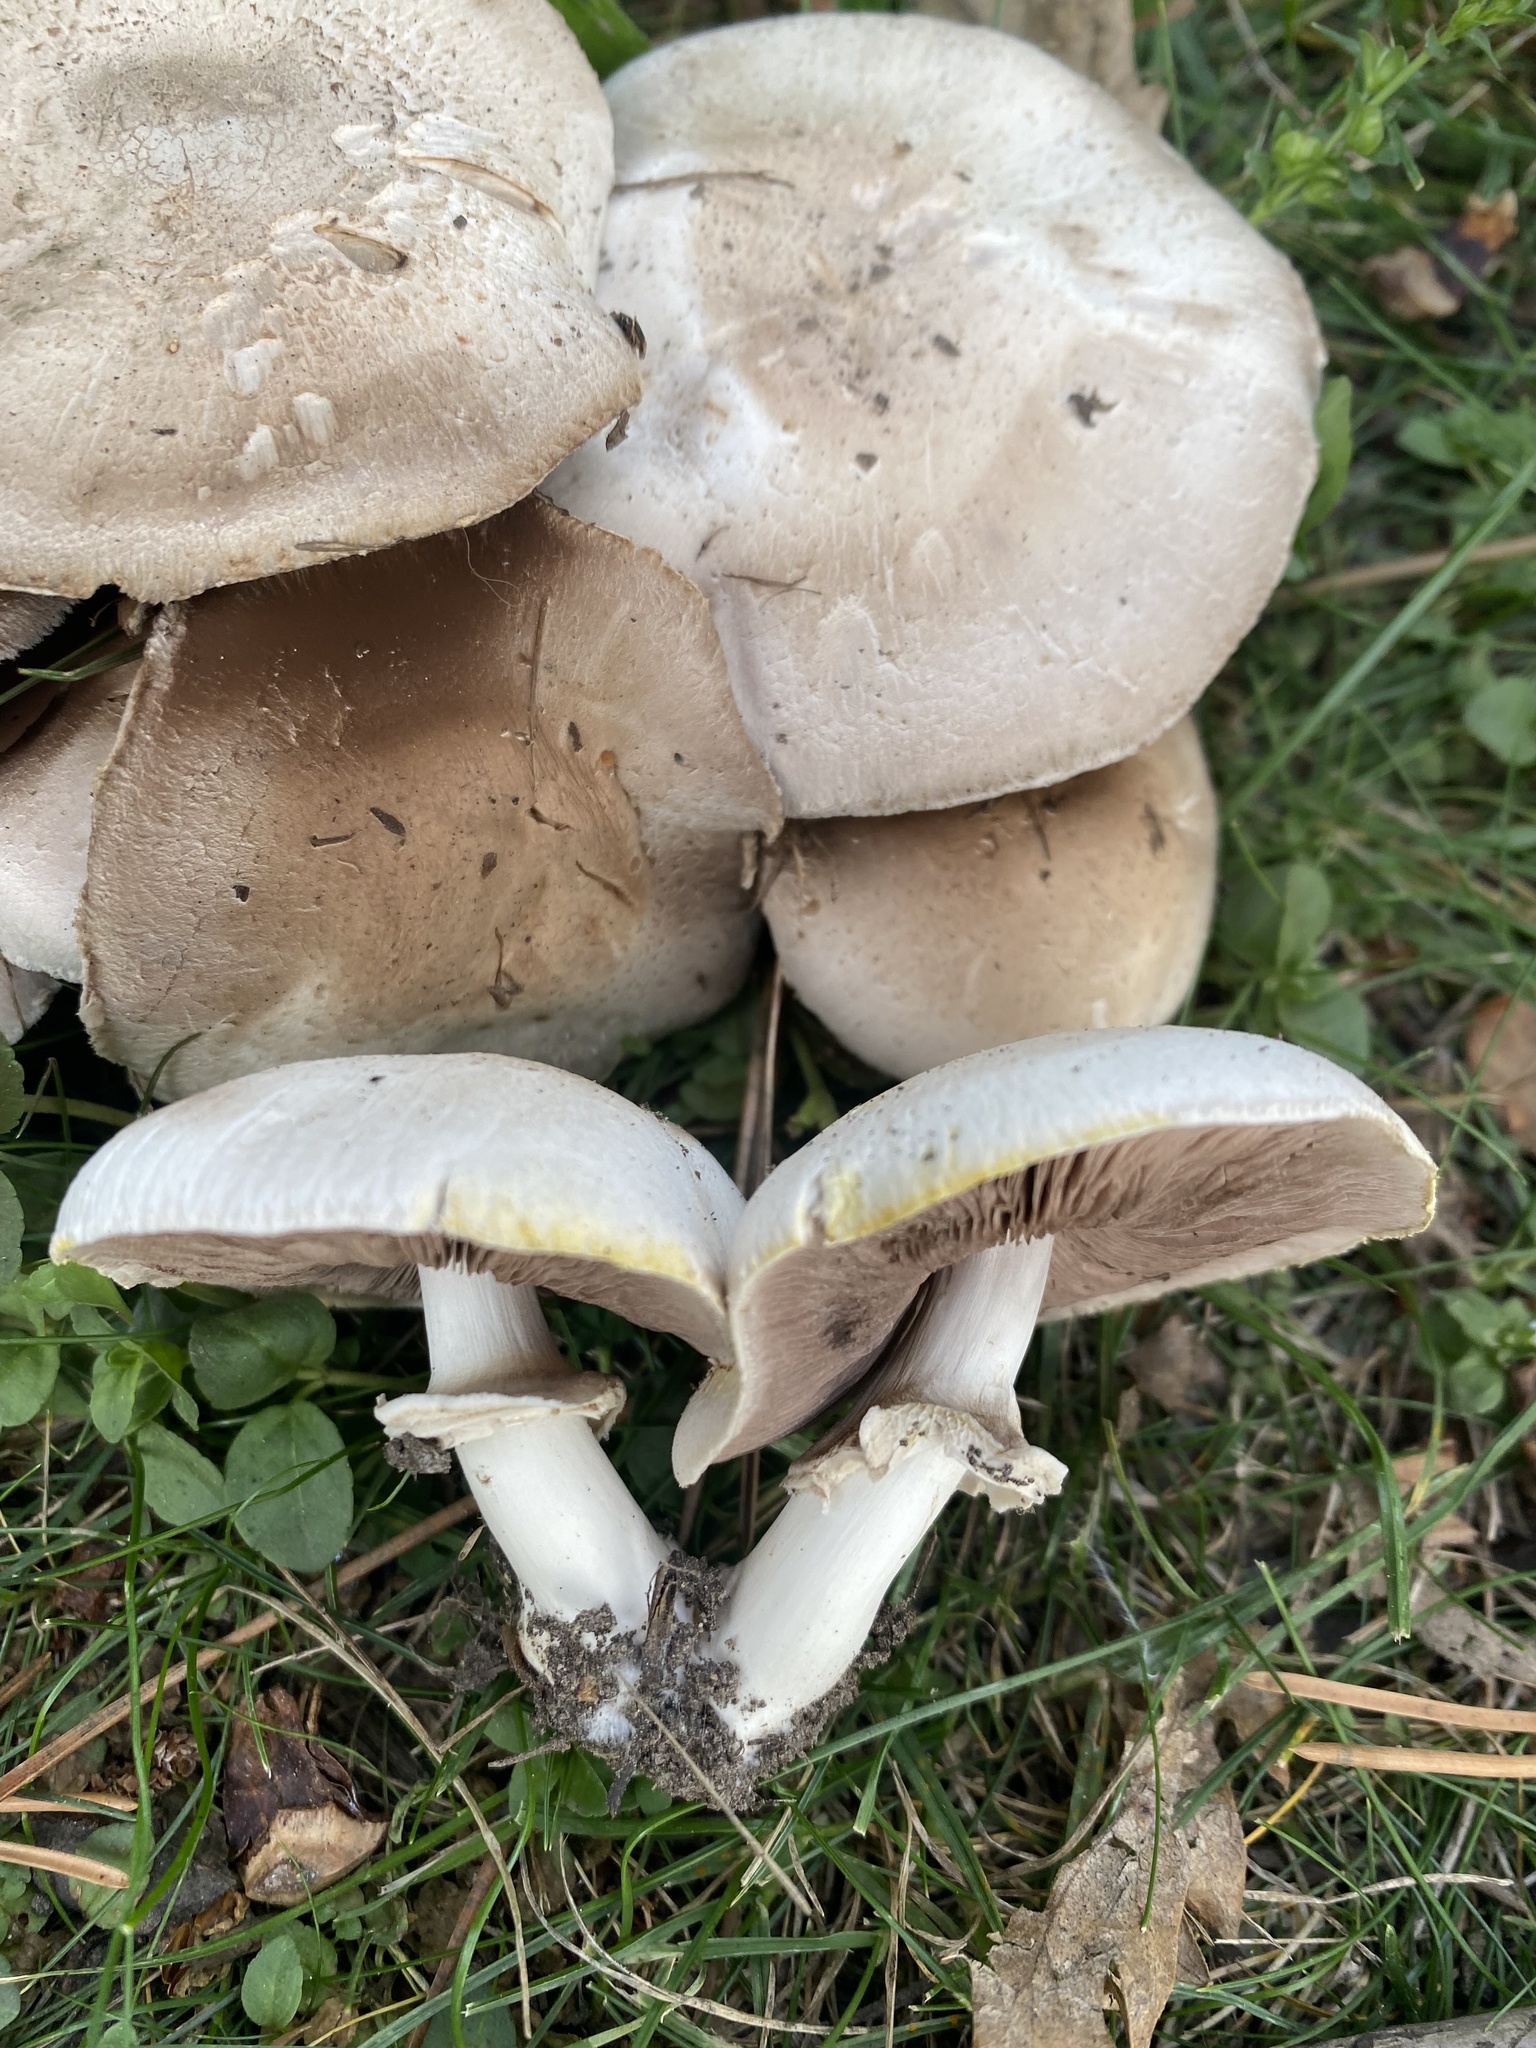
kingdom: Fungi
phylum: Basidiomycota
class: Agaricomycetes
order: Agaricales
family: Agaricaceae
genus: Agaricus
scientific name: Agaricus xanthodermus
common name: Yellow stainer
